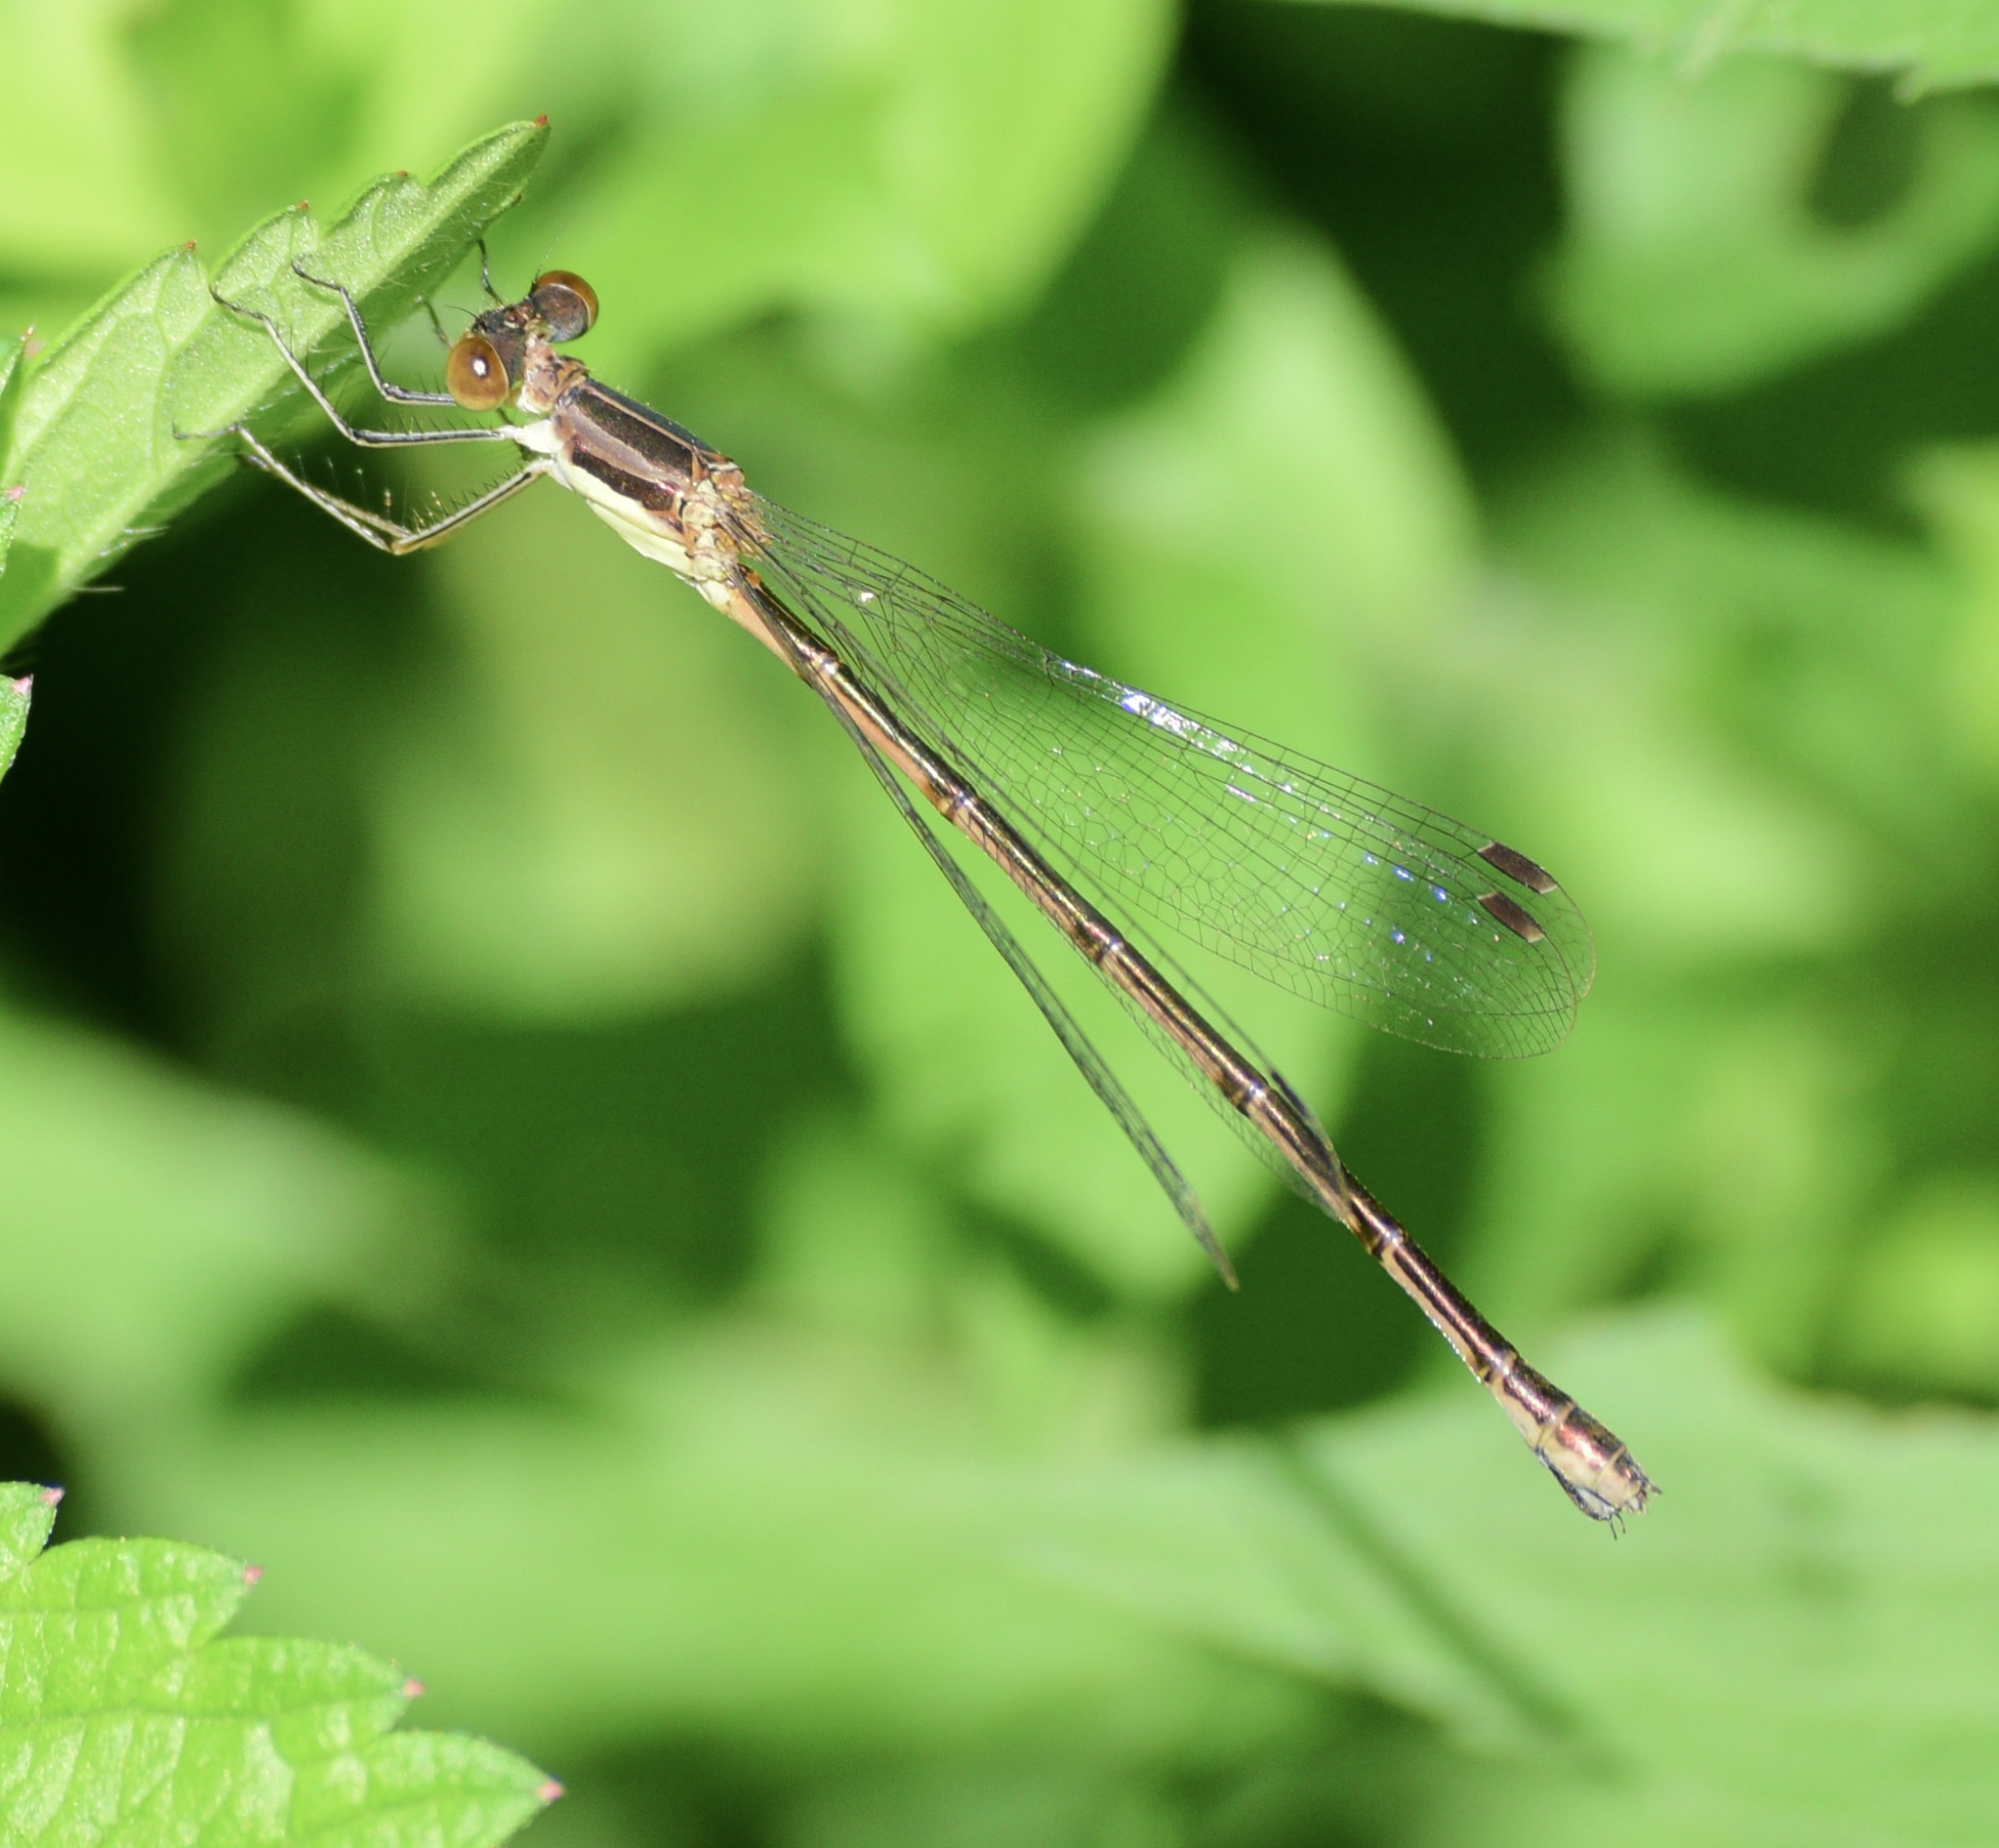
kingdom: Animalia
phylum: Arthropoda
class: Insecta
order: Odonata
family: Lestidae
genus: Lestes
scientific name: Lestes rectangularis
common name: Slender spreadwing
